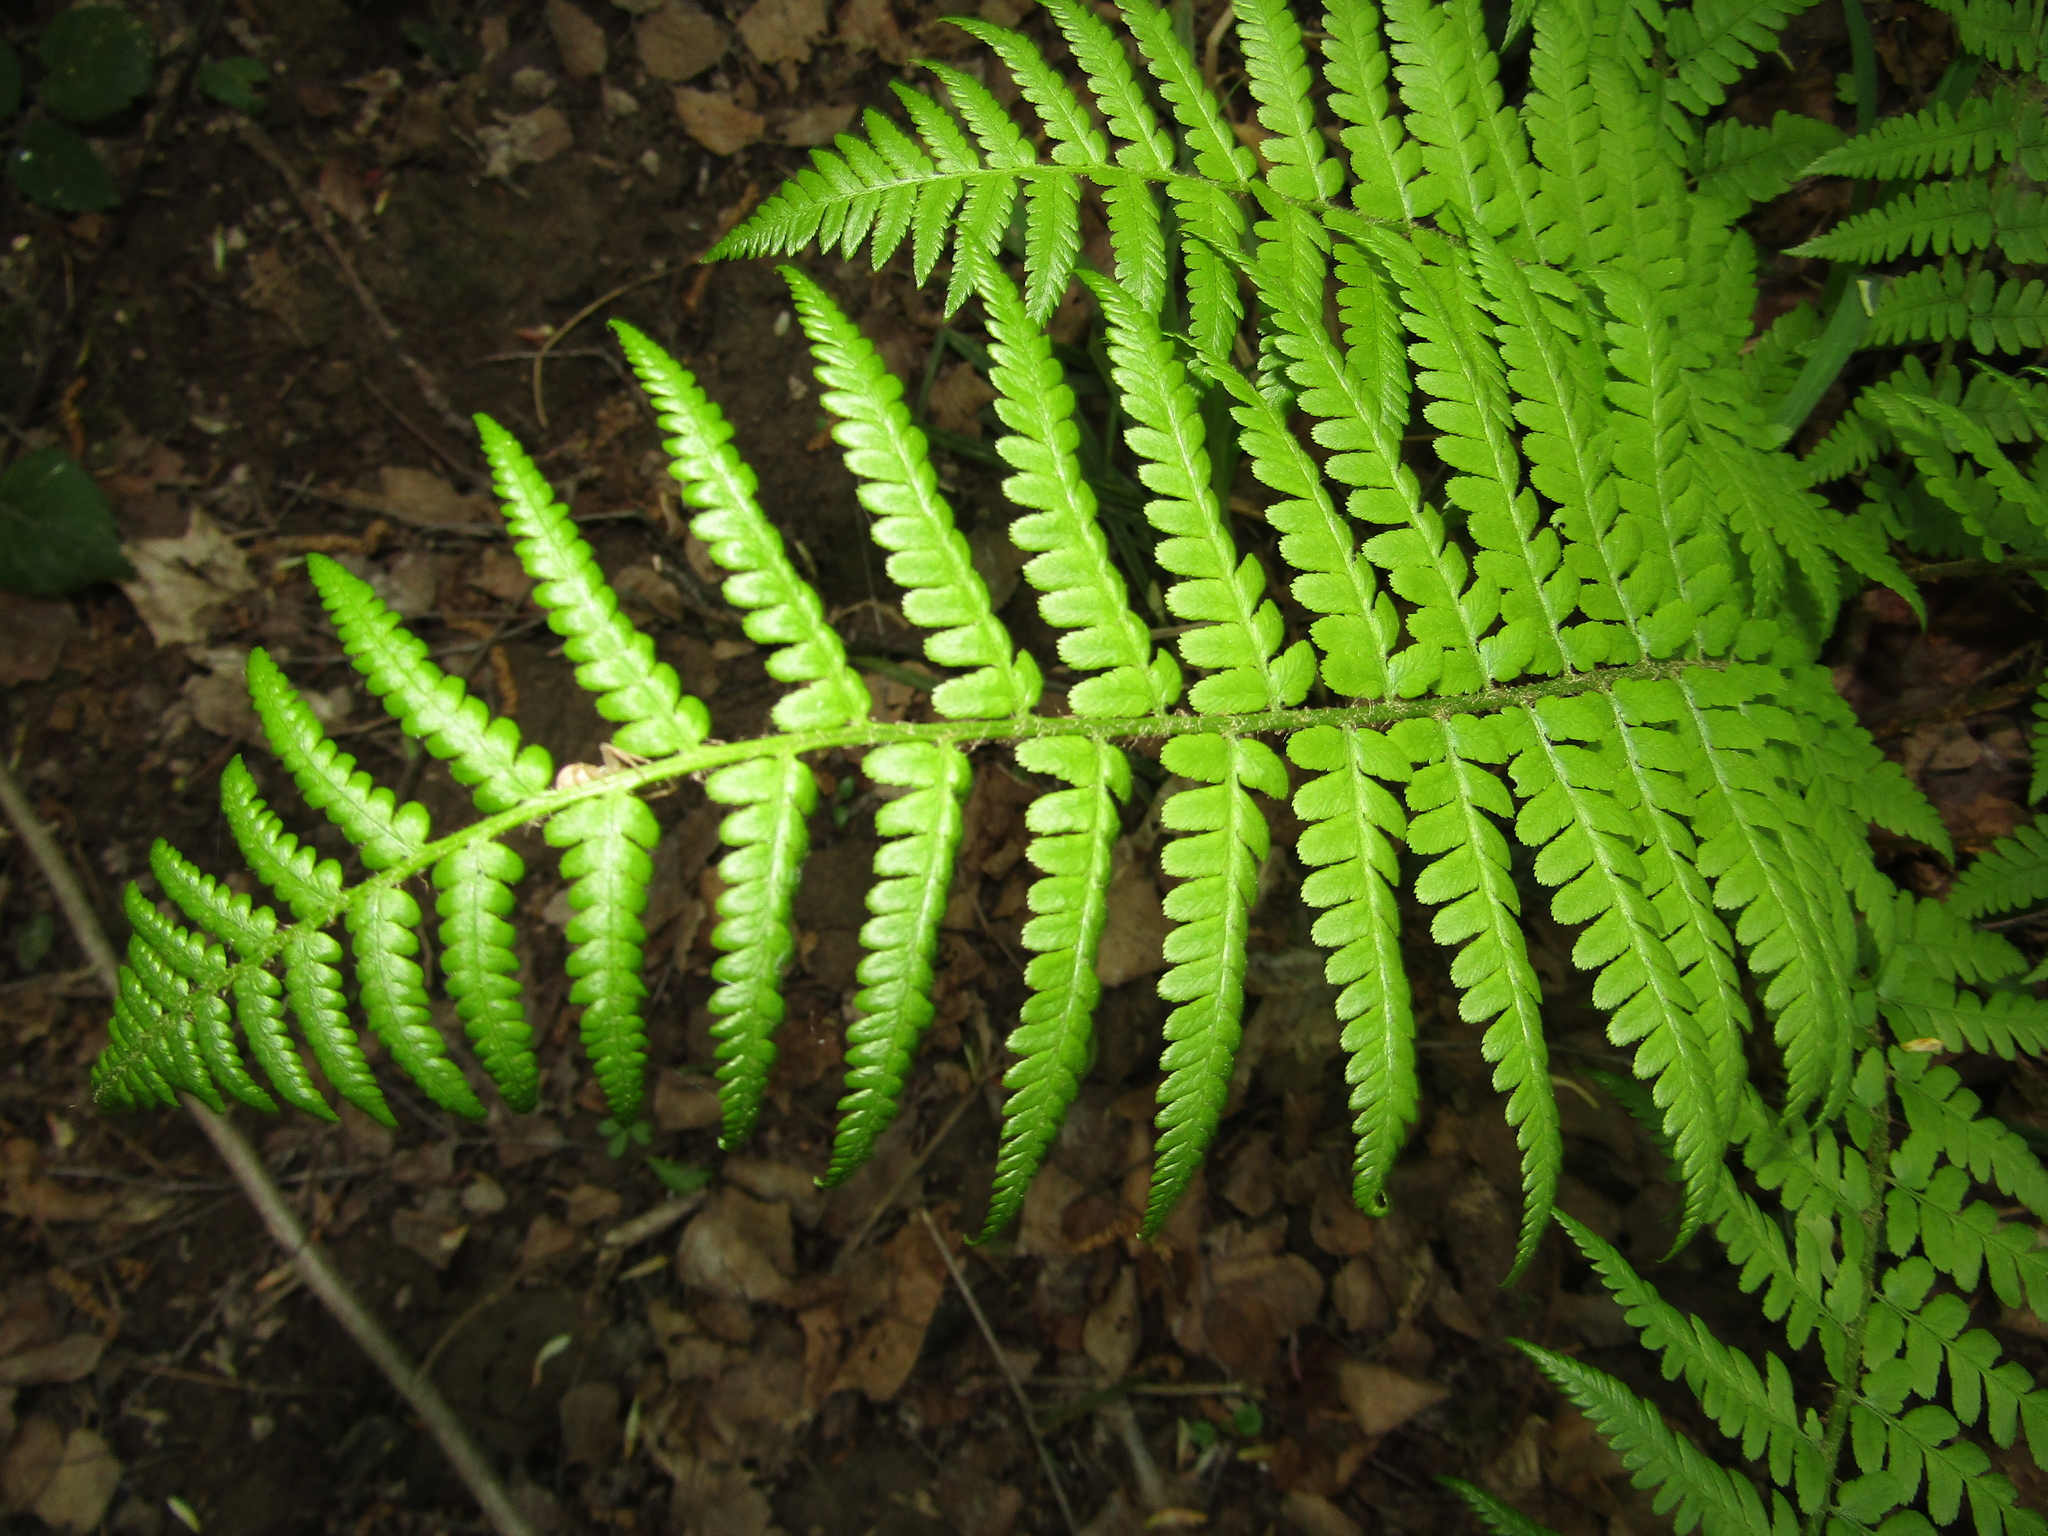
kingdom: Plantae
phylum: Tracheophyta
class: Polypodiopsida
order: Polypodiales
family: Dryopteridaceae
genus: Dryopteris
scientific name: Dryopteris filix-mas
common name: Male fern
